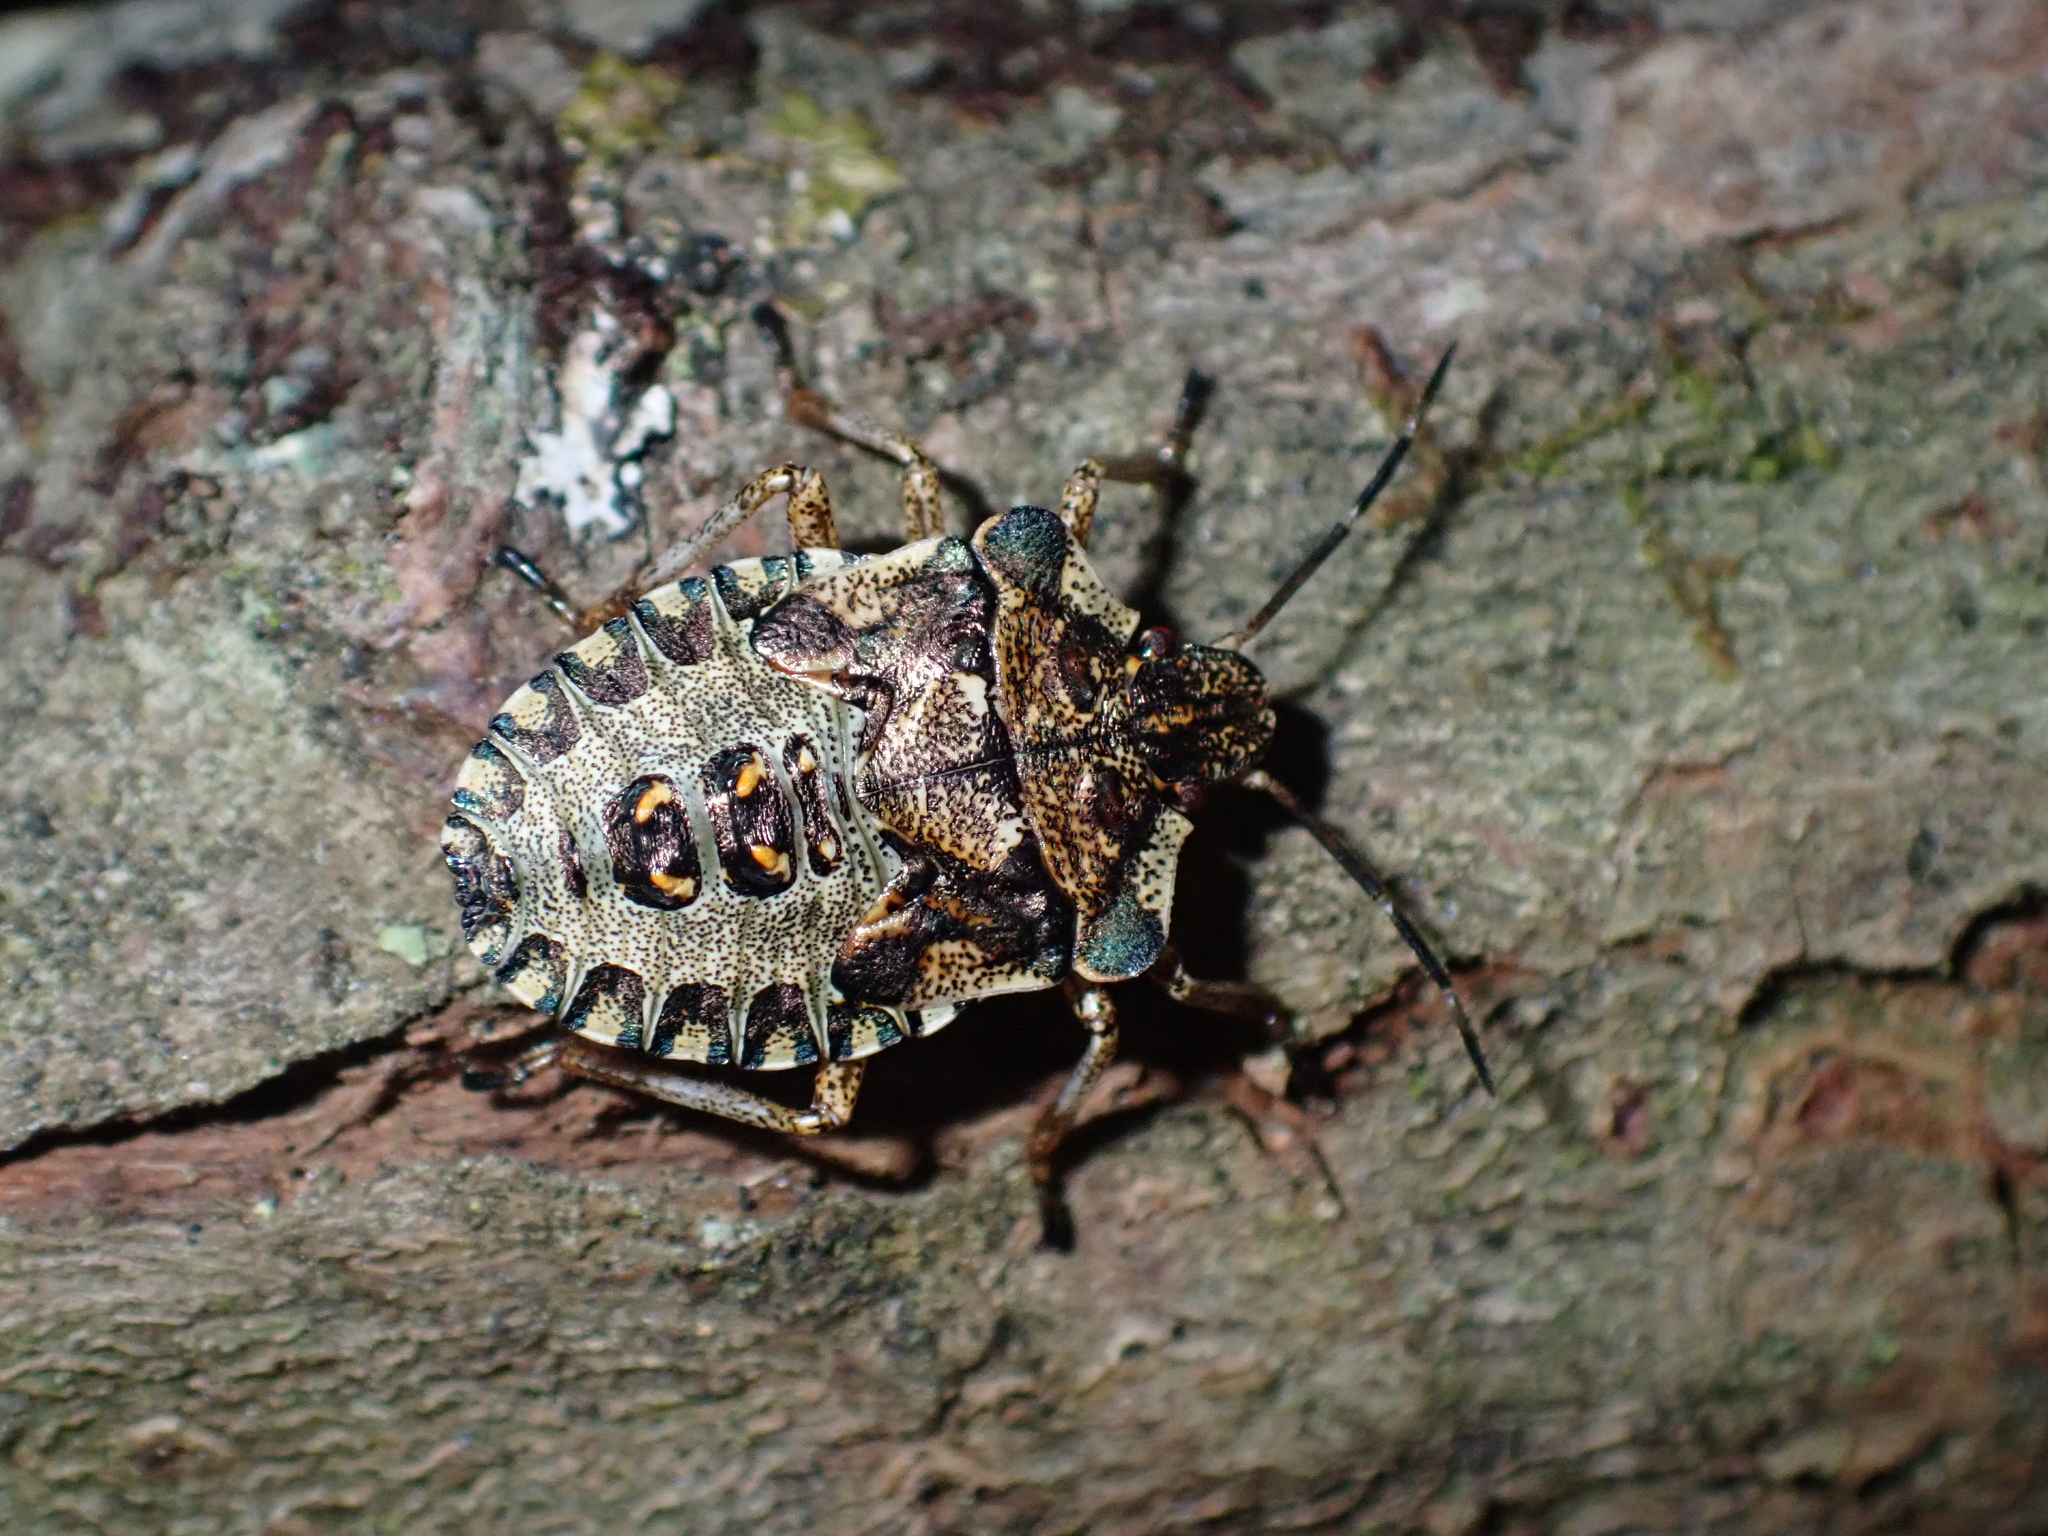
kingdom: Animalia
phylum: Arthropoda
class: Insecta
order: Hemiptera
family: Pentatomidae
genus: Pentatoma
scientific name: Pentatoma rufipes
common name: Forest bug
